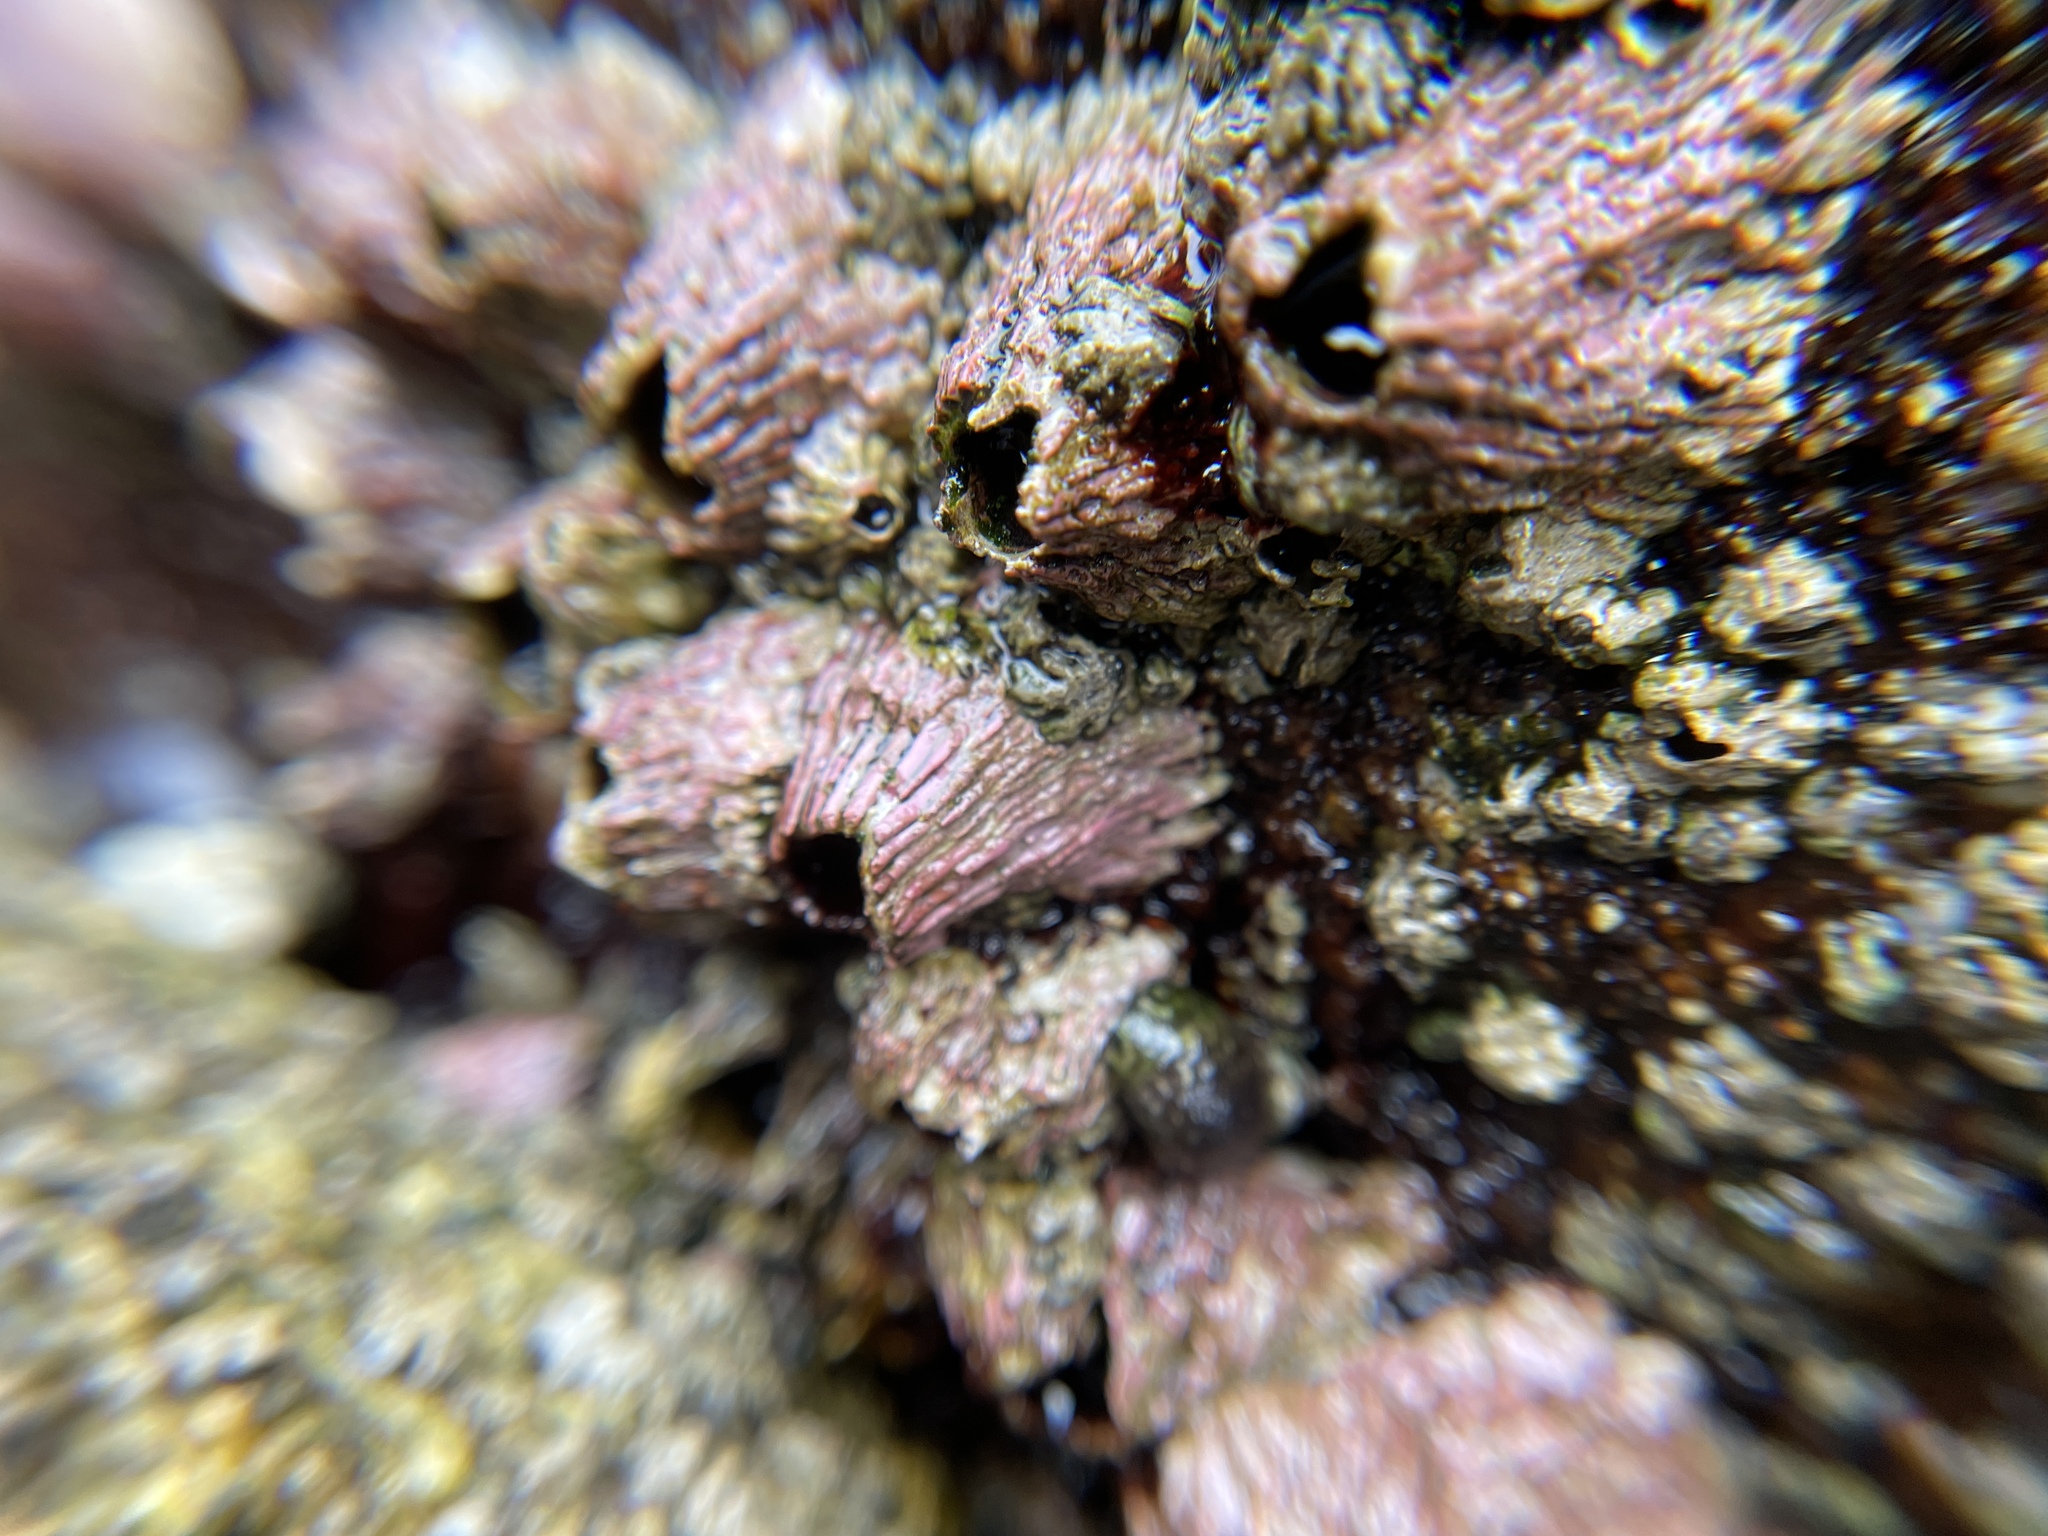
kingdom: Animalia
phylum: Arthropoda
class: Maxillopoda
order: Sessilia
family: Tetraclitidae
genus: Tetraclita
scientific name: Tetraclita rubescens
